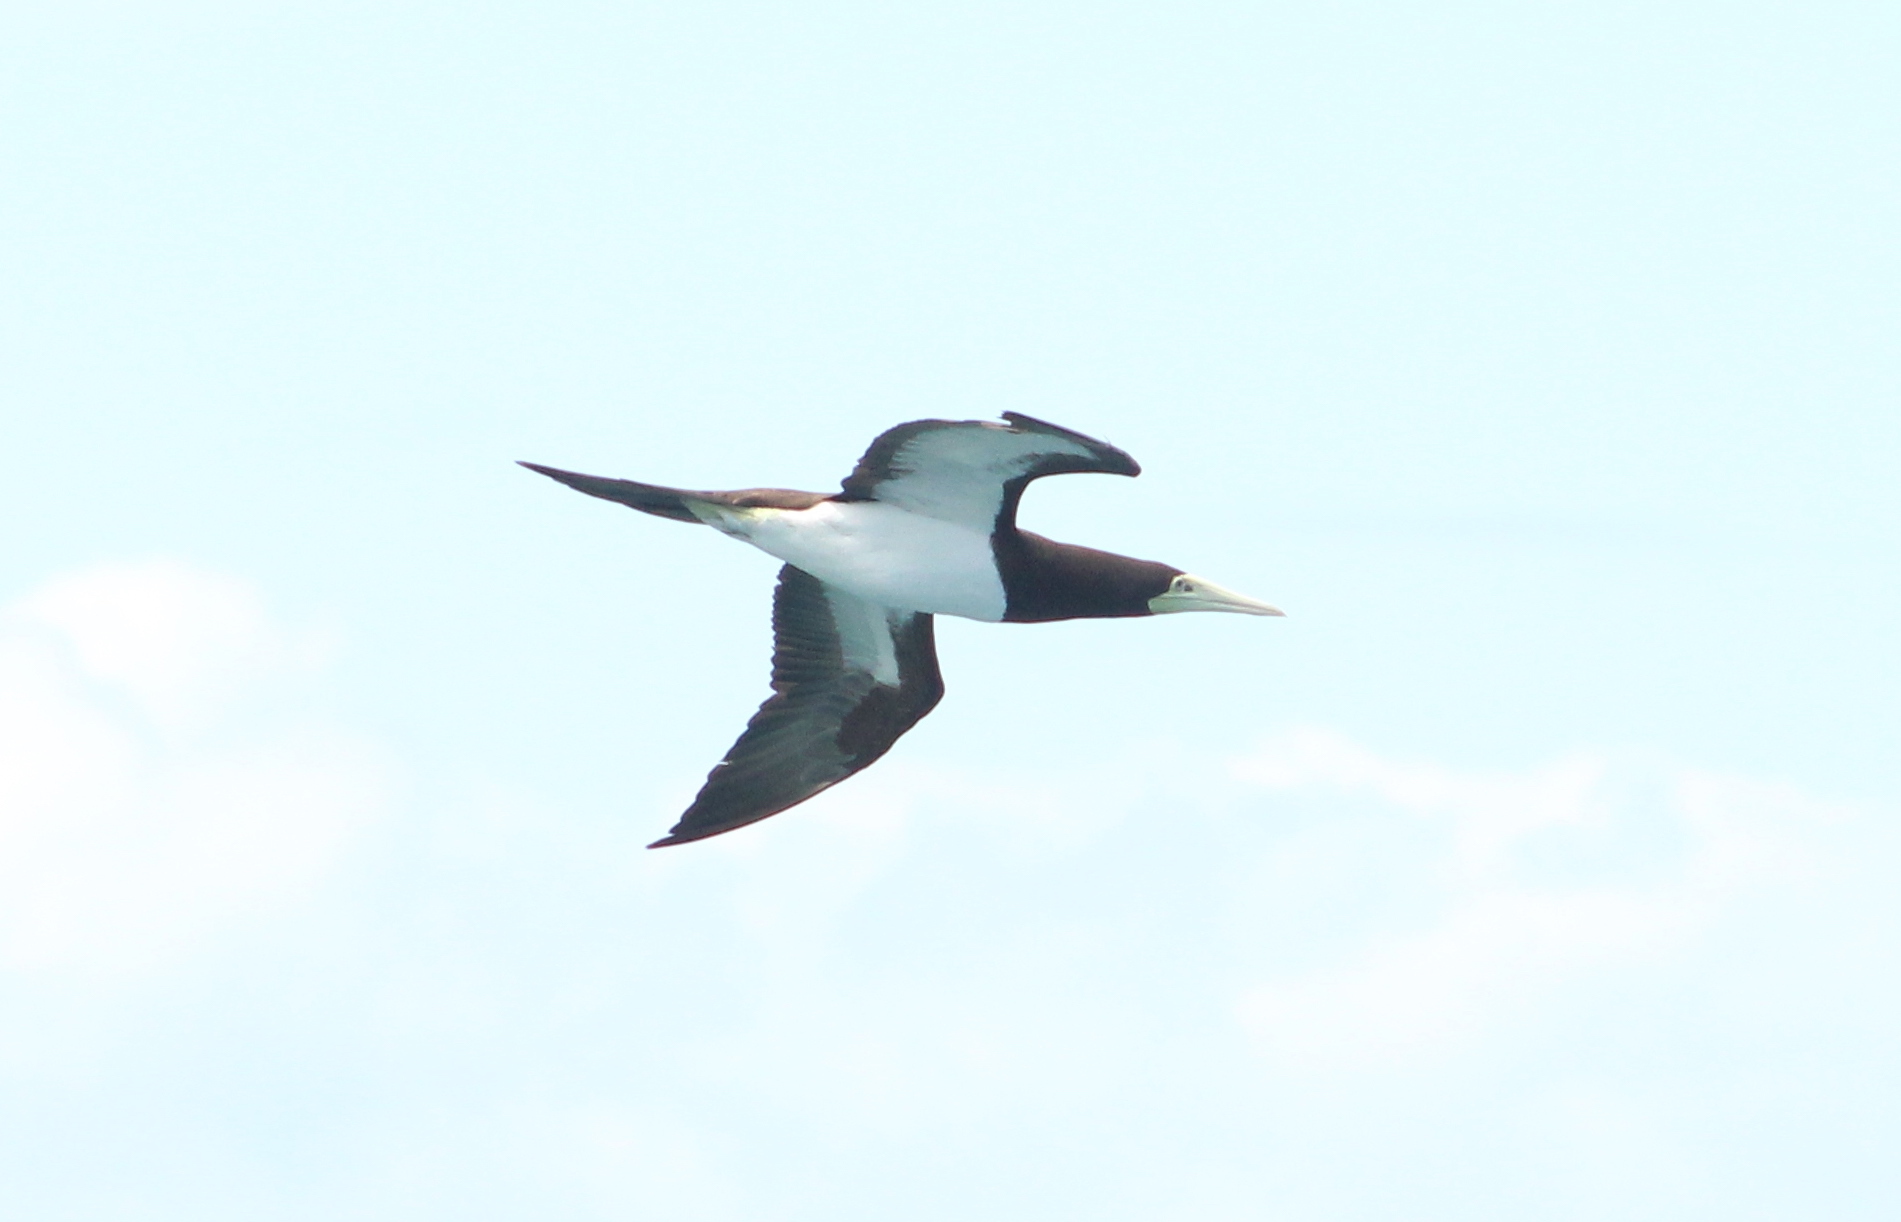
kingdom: Animalia
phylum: Chordata
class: Aves
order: Suliformes
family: Sulidae
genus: Sula
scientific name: Sula leucogaster
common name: Brown booby
